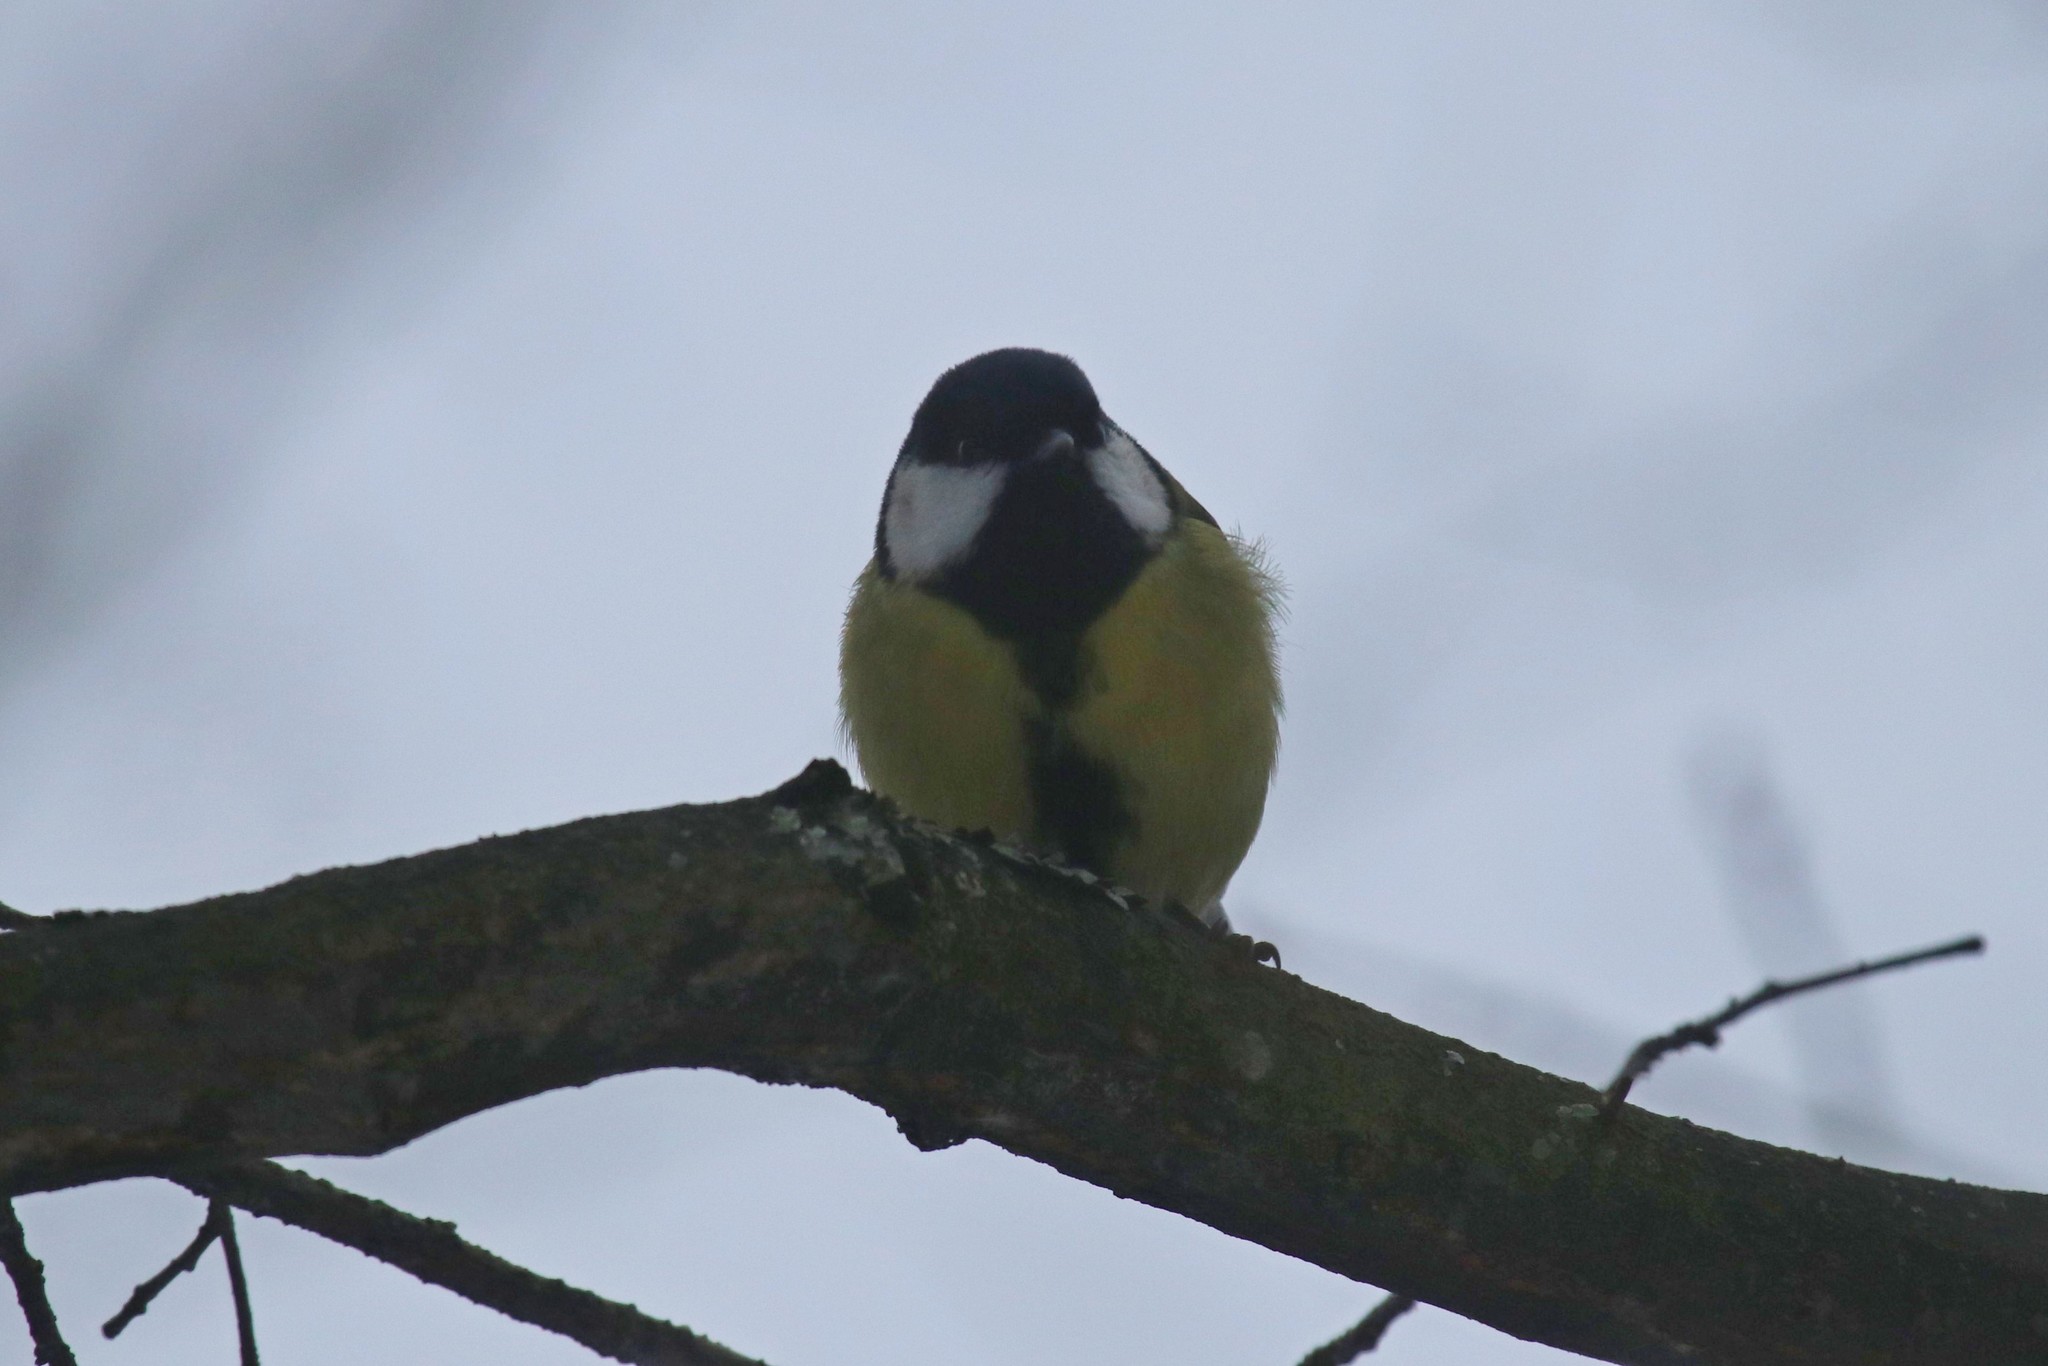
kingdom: Animalia
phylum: Chordata
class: Aves
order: Passeriformes
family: Paridae
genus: Parus
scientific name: Parus major
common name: Great tit
